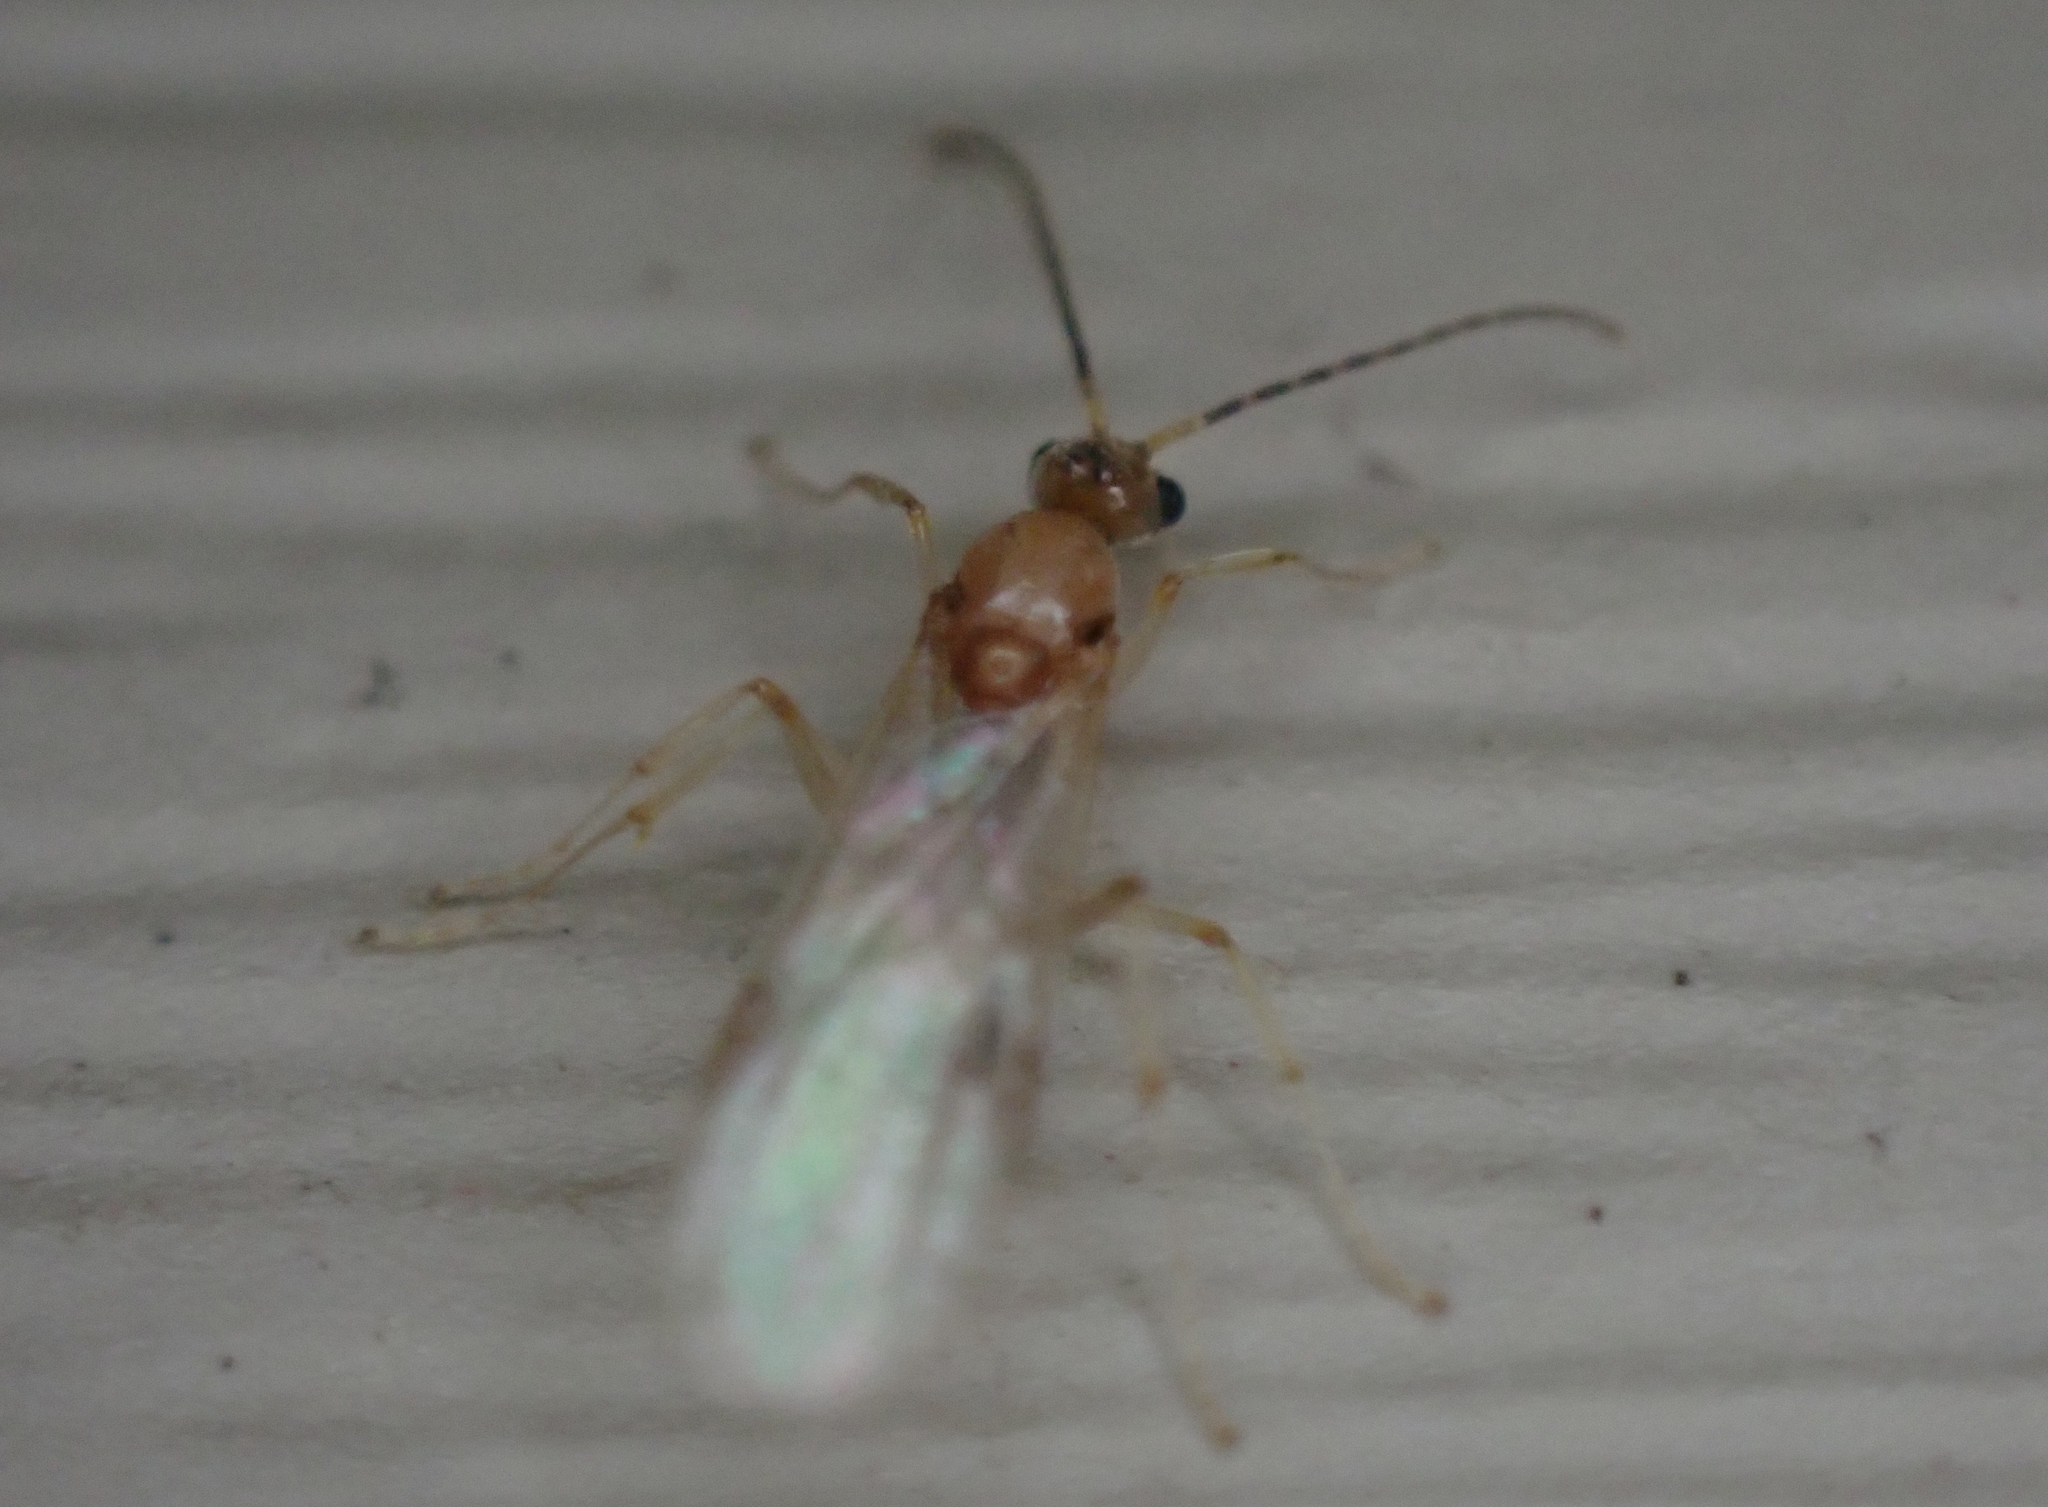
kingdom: Animalia
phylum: Arthropoda
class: Insecta
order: Hymenoptera
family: Formicidae
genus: Pachycondyla
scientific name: Pachycondyla chinensis
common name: Asian needle ant
